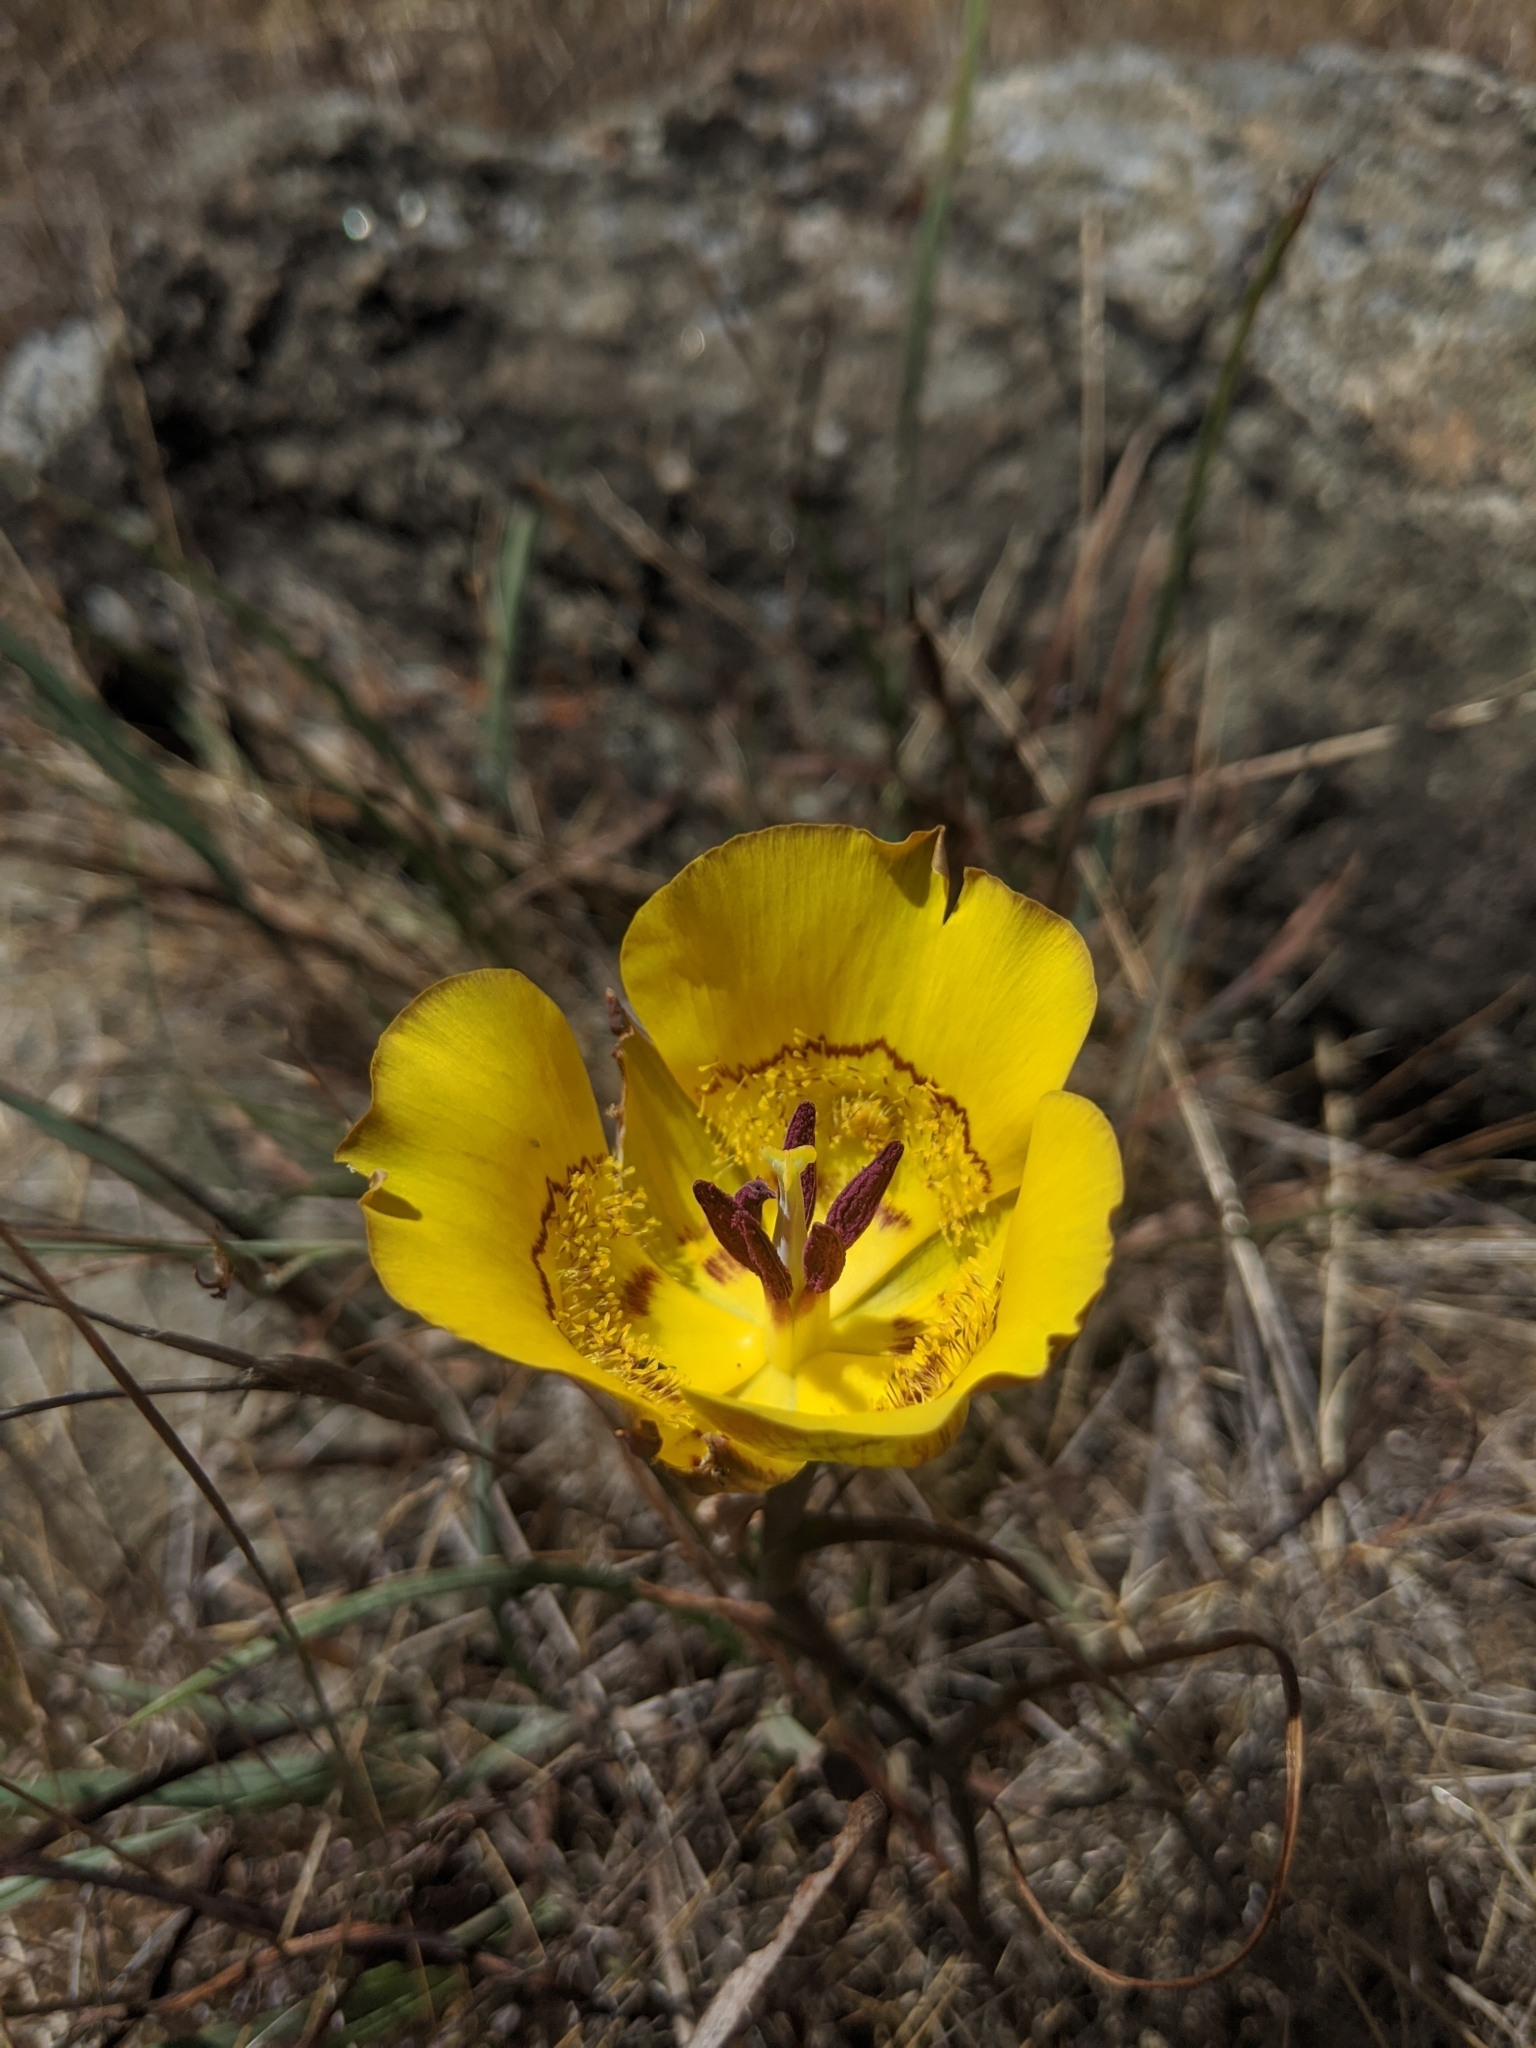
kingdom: Plantae
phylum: Tracheophyta
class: Liliopsida
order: Liliales
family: Liliaceae
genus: Calochortus
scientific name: Calochortus clavatus
